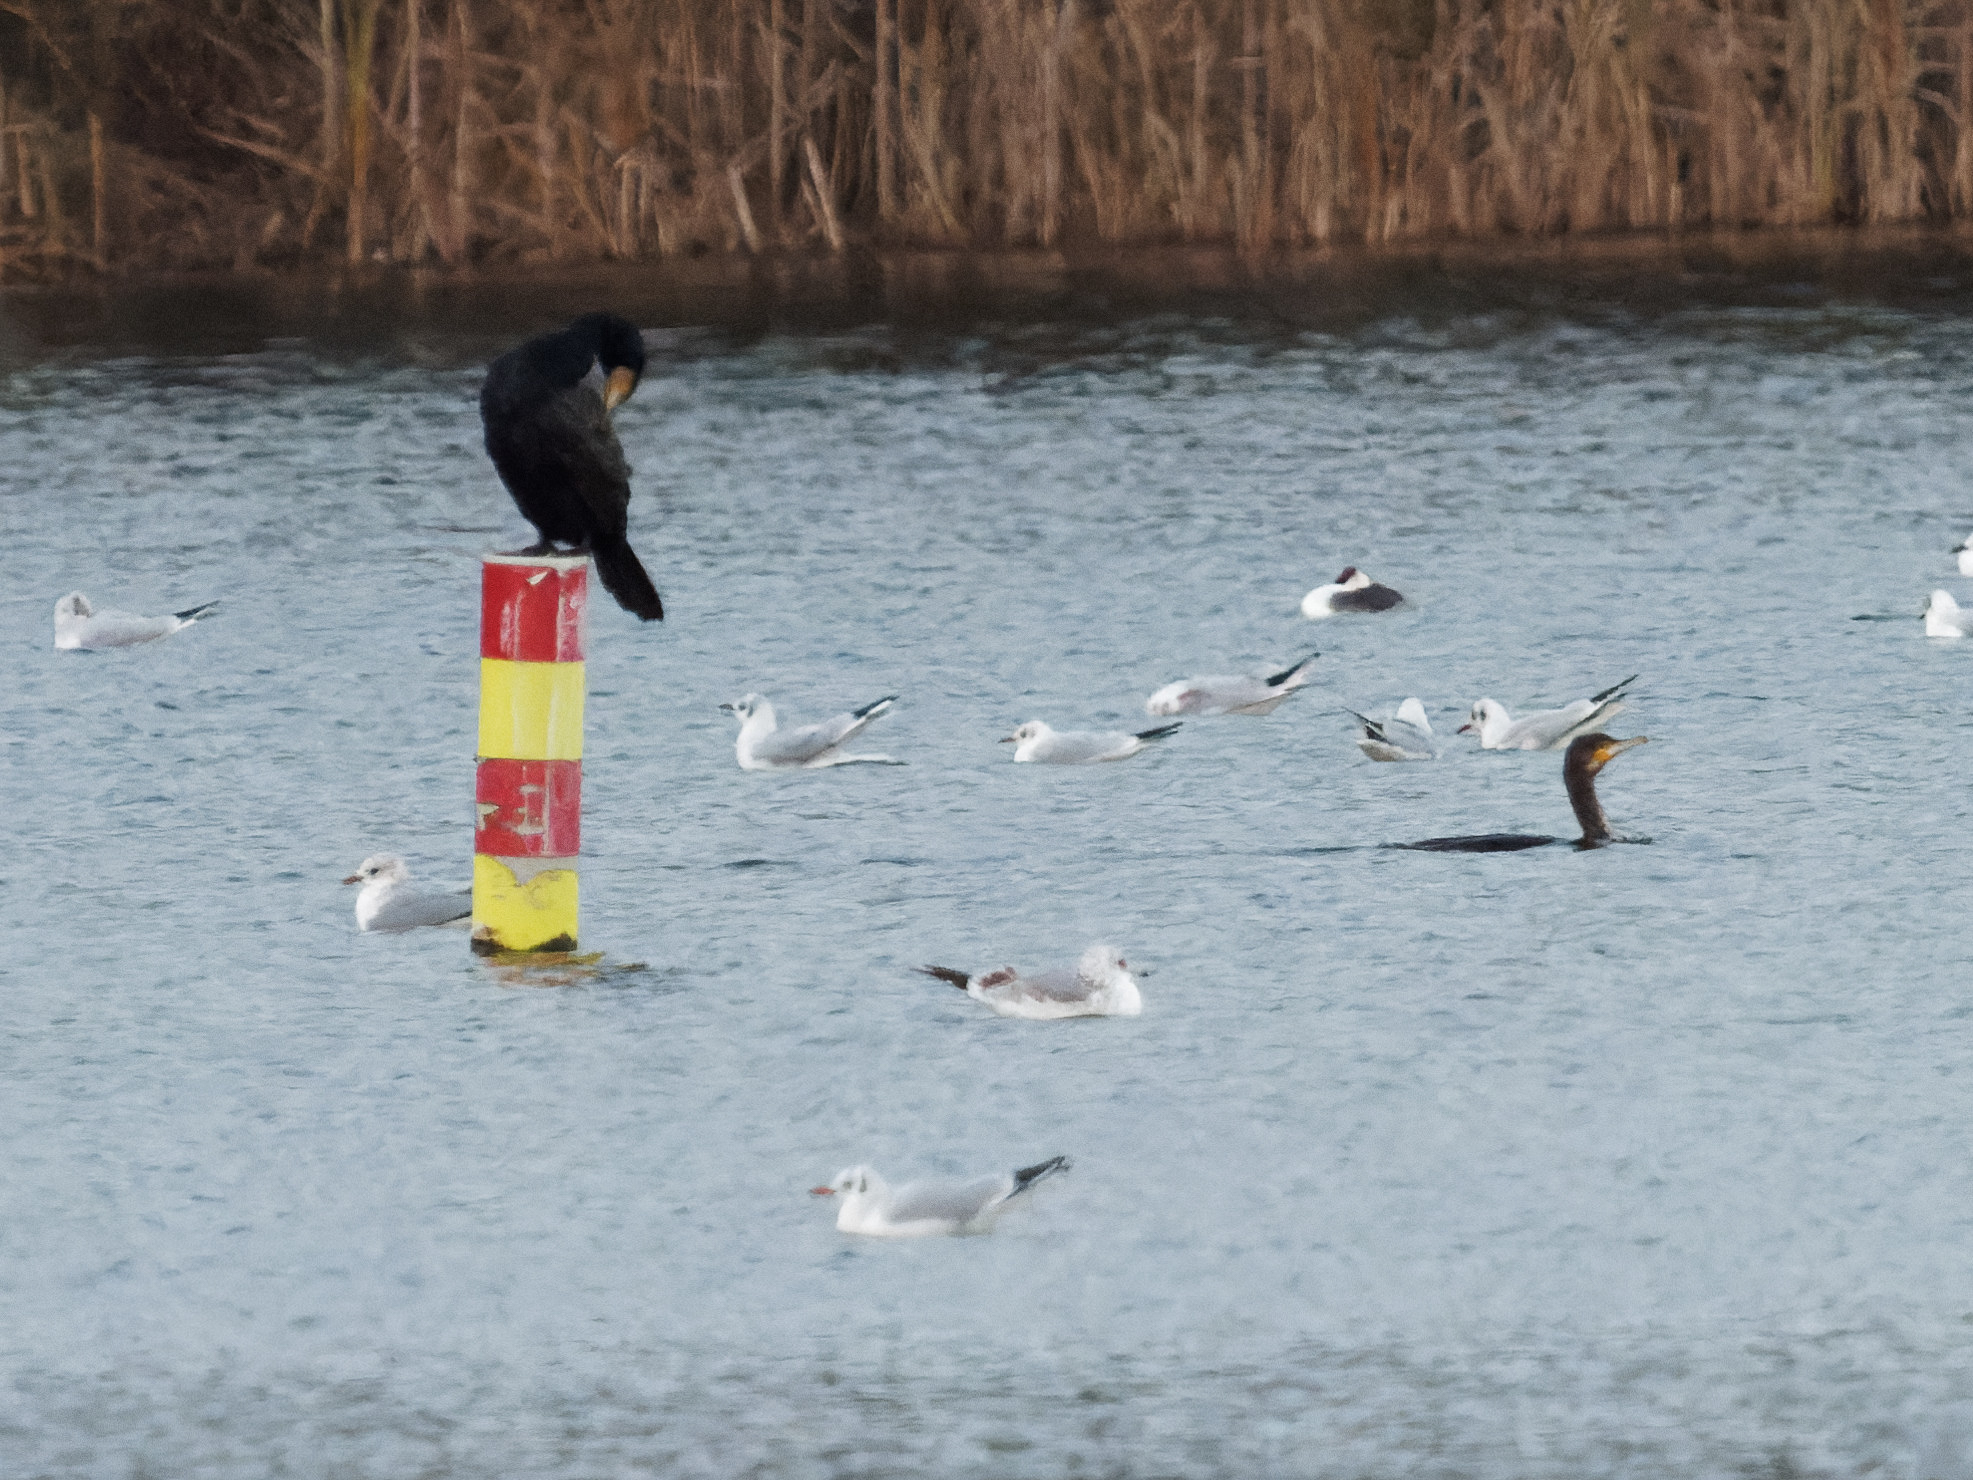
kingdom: Animalia
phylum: Chordata
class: Aves
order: Suliformes
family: Phalacrocoracidae
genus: Phalacrocorax
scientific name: Phalacrocorax carbo
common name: Great cormorant
